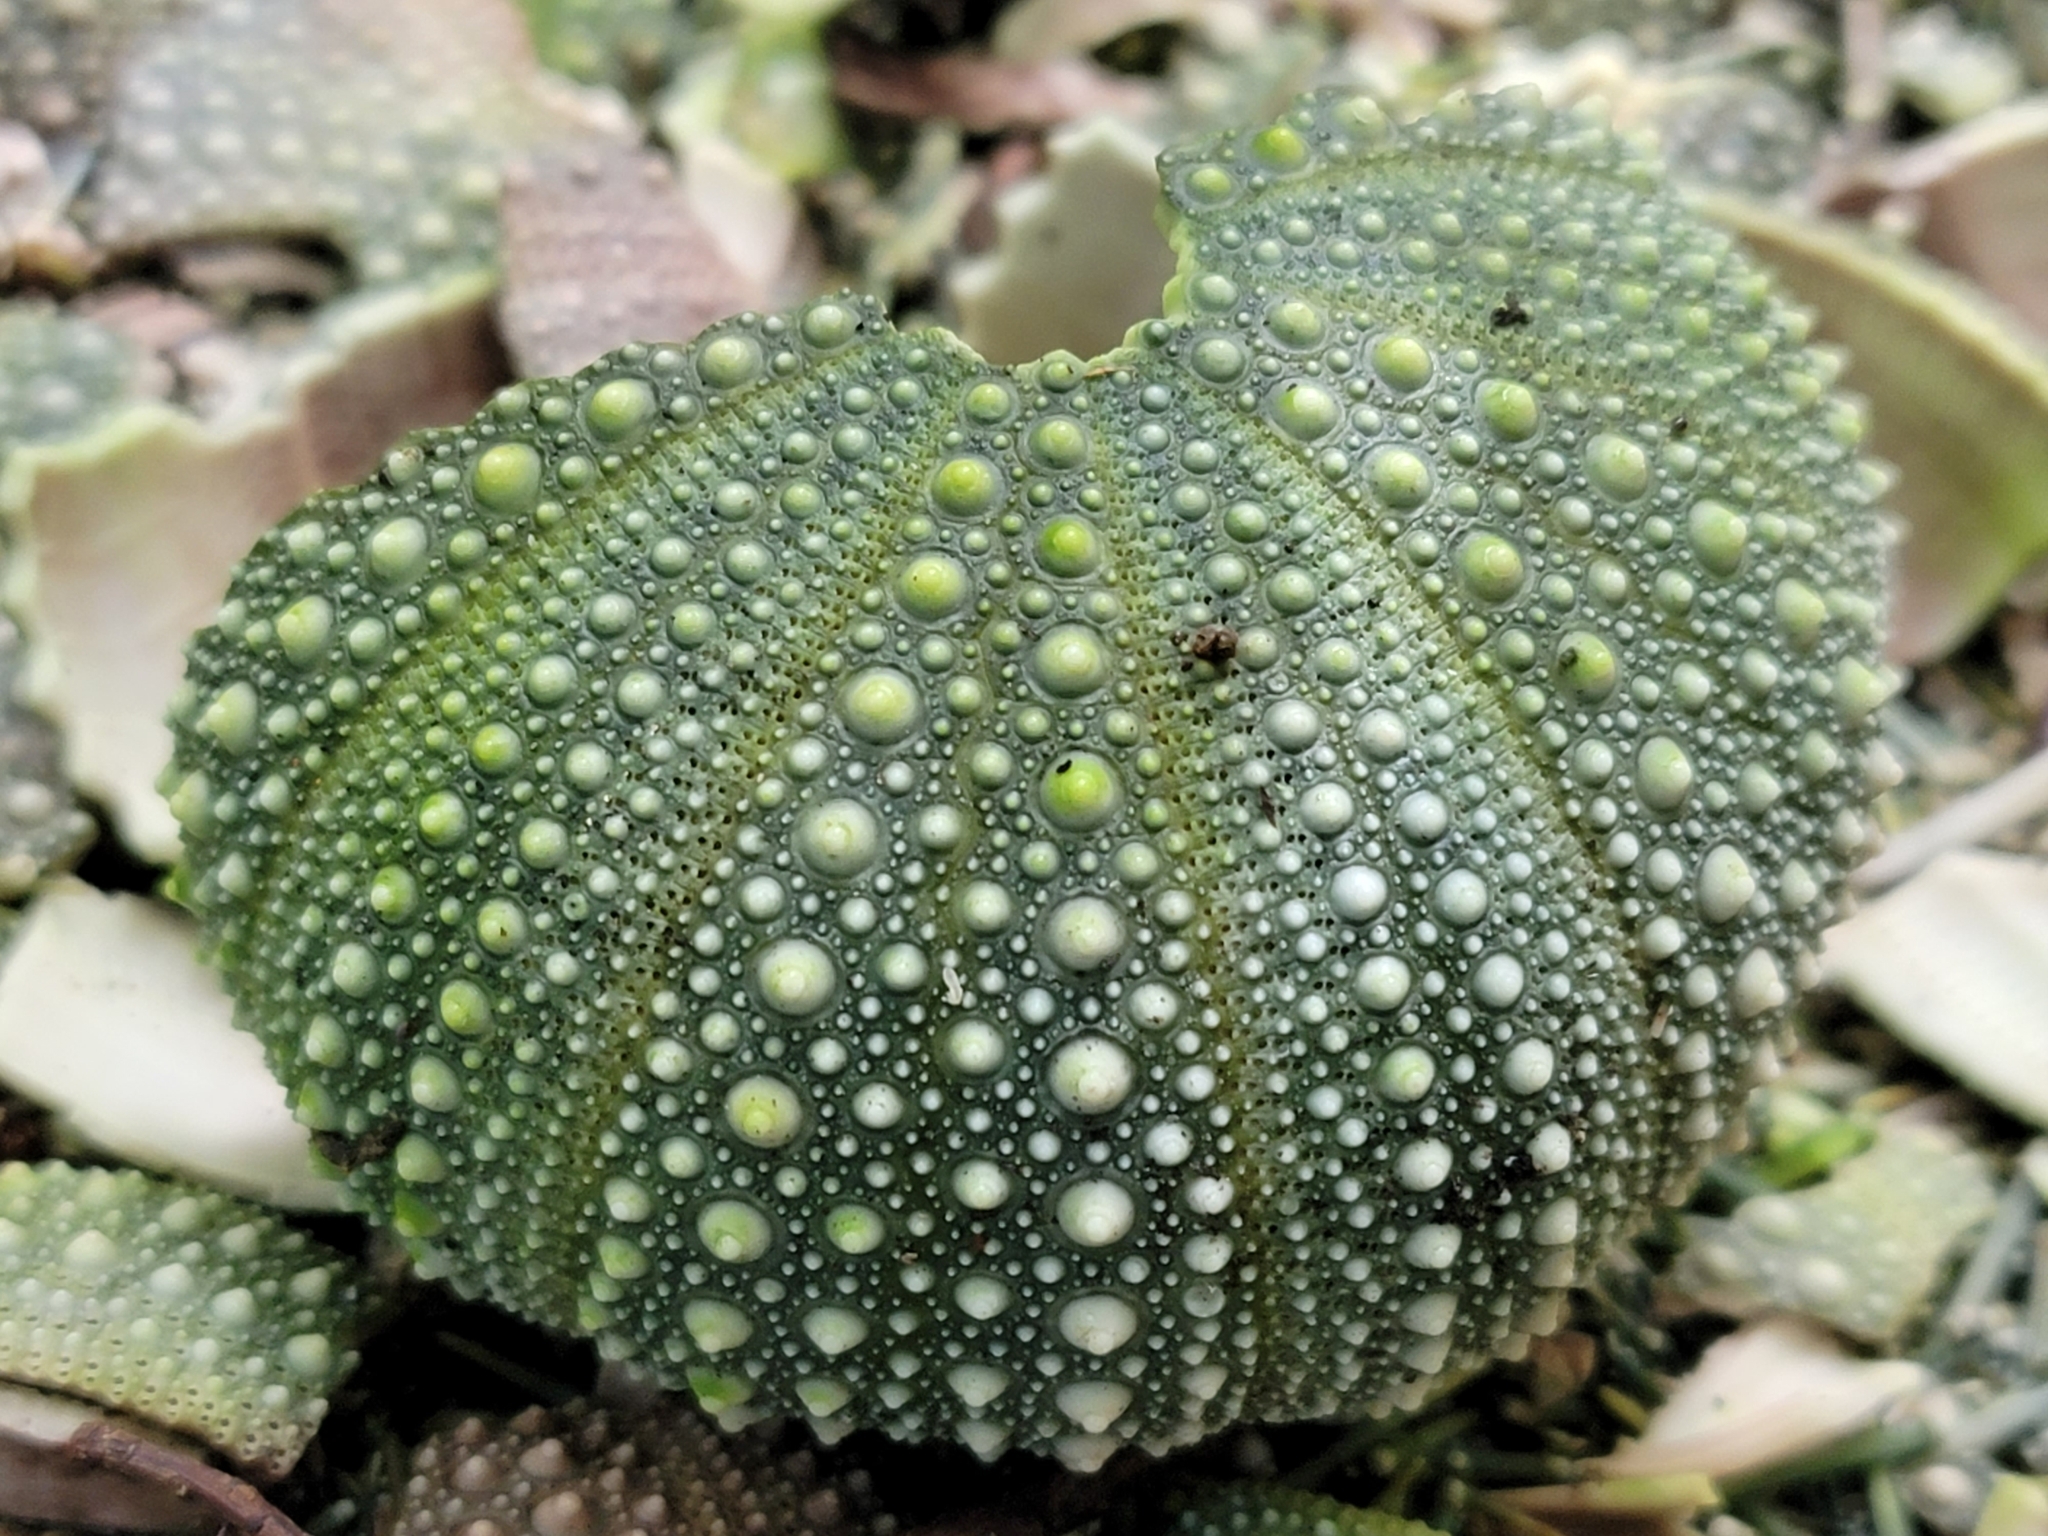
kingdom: Animalia
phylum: Echinodermata
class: Echinoidea
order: Camarodonta
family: Echinometridae
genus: Evechinus
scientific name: Evechinus chloroticus
